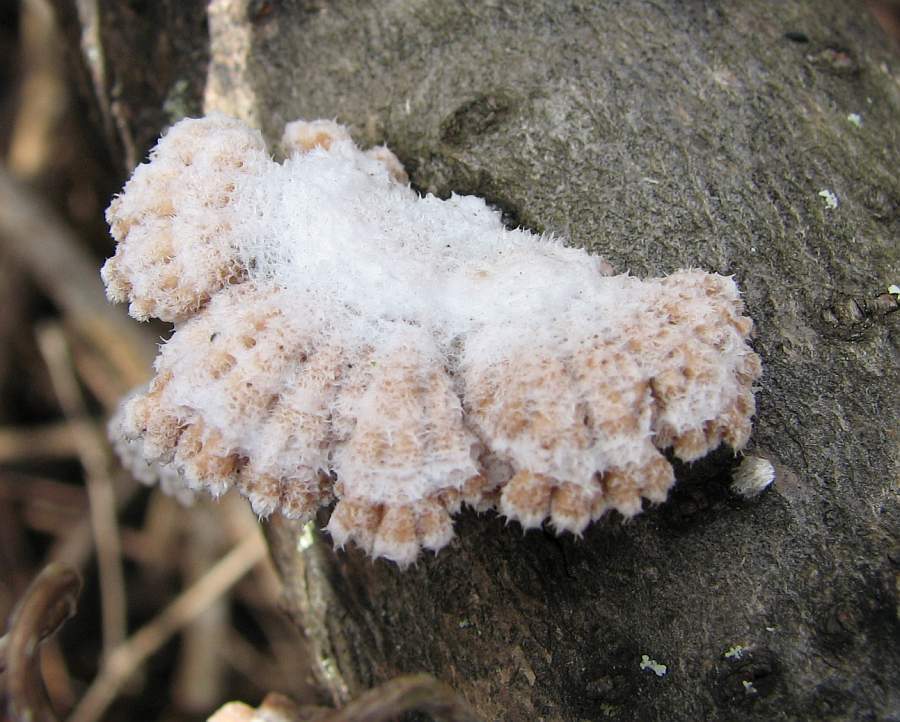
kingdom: Fungi
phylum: Basidiomycota
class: Agaricomycetes
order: Agaricales
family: Schizophyllaceae
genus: Schizophyllum
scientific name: Schizophyllum commune
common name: Common porecrust
